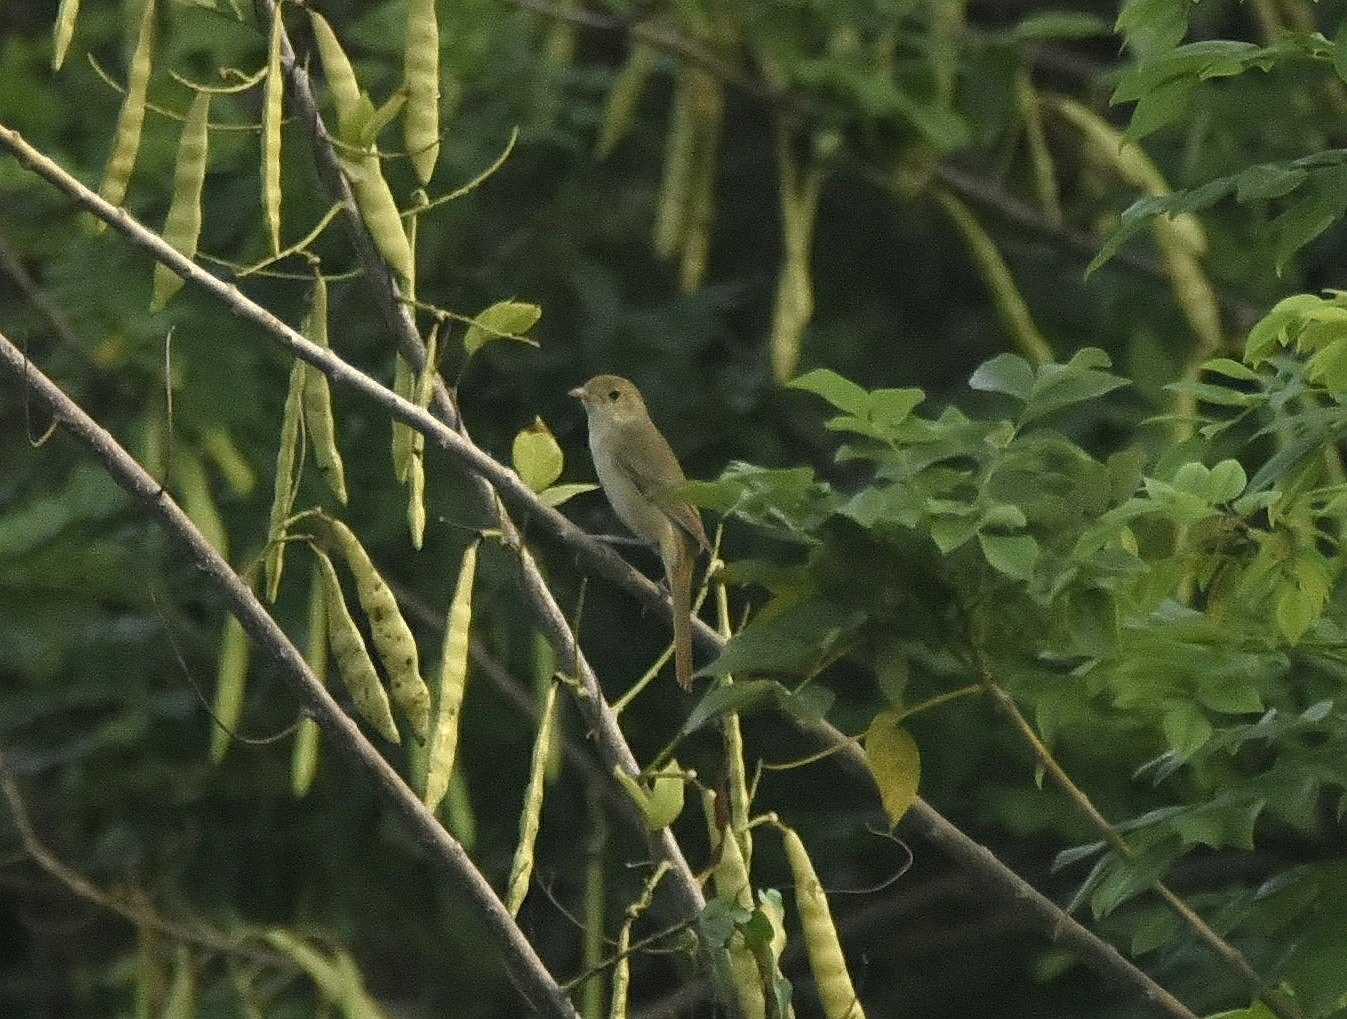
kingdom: Animalia
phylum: Chordata
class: Aves
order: Passeriformes
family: Acrocephalidae
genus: Iduna
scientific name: Iduna aedon
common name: Thick-billed warbler
